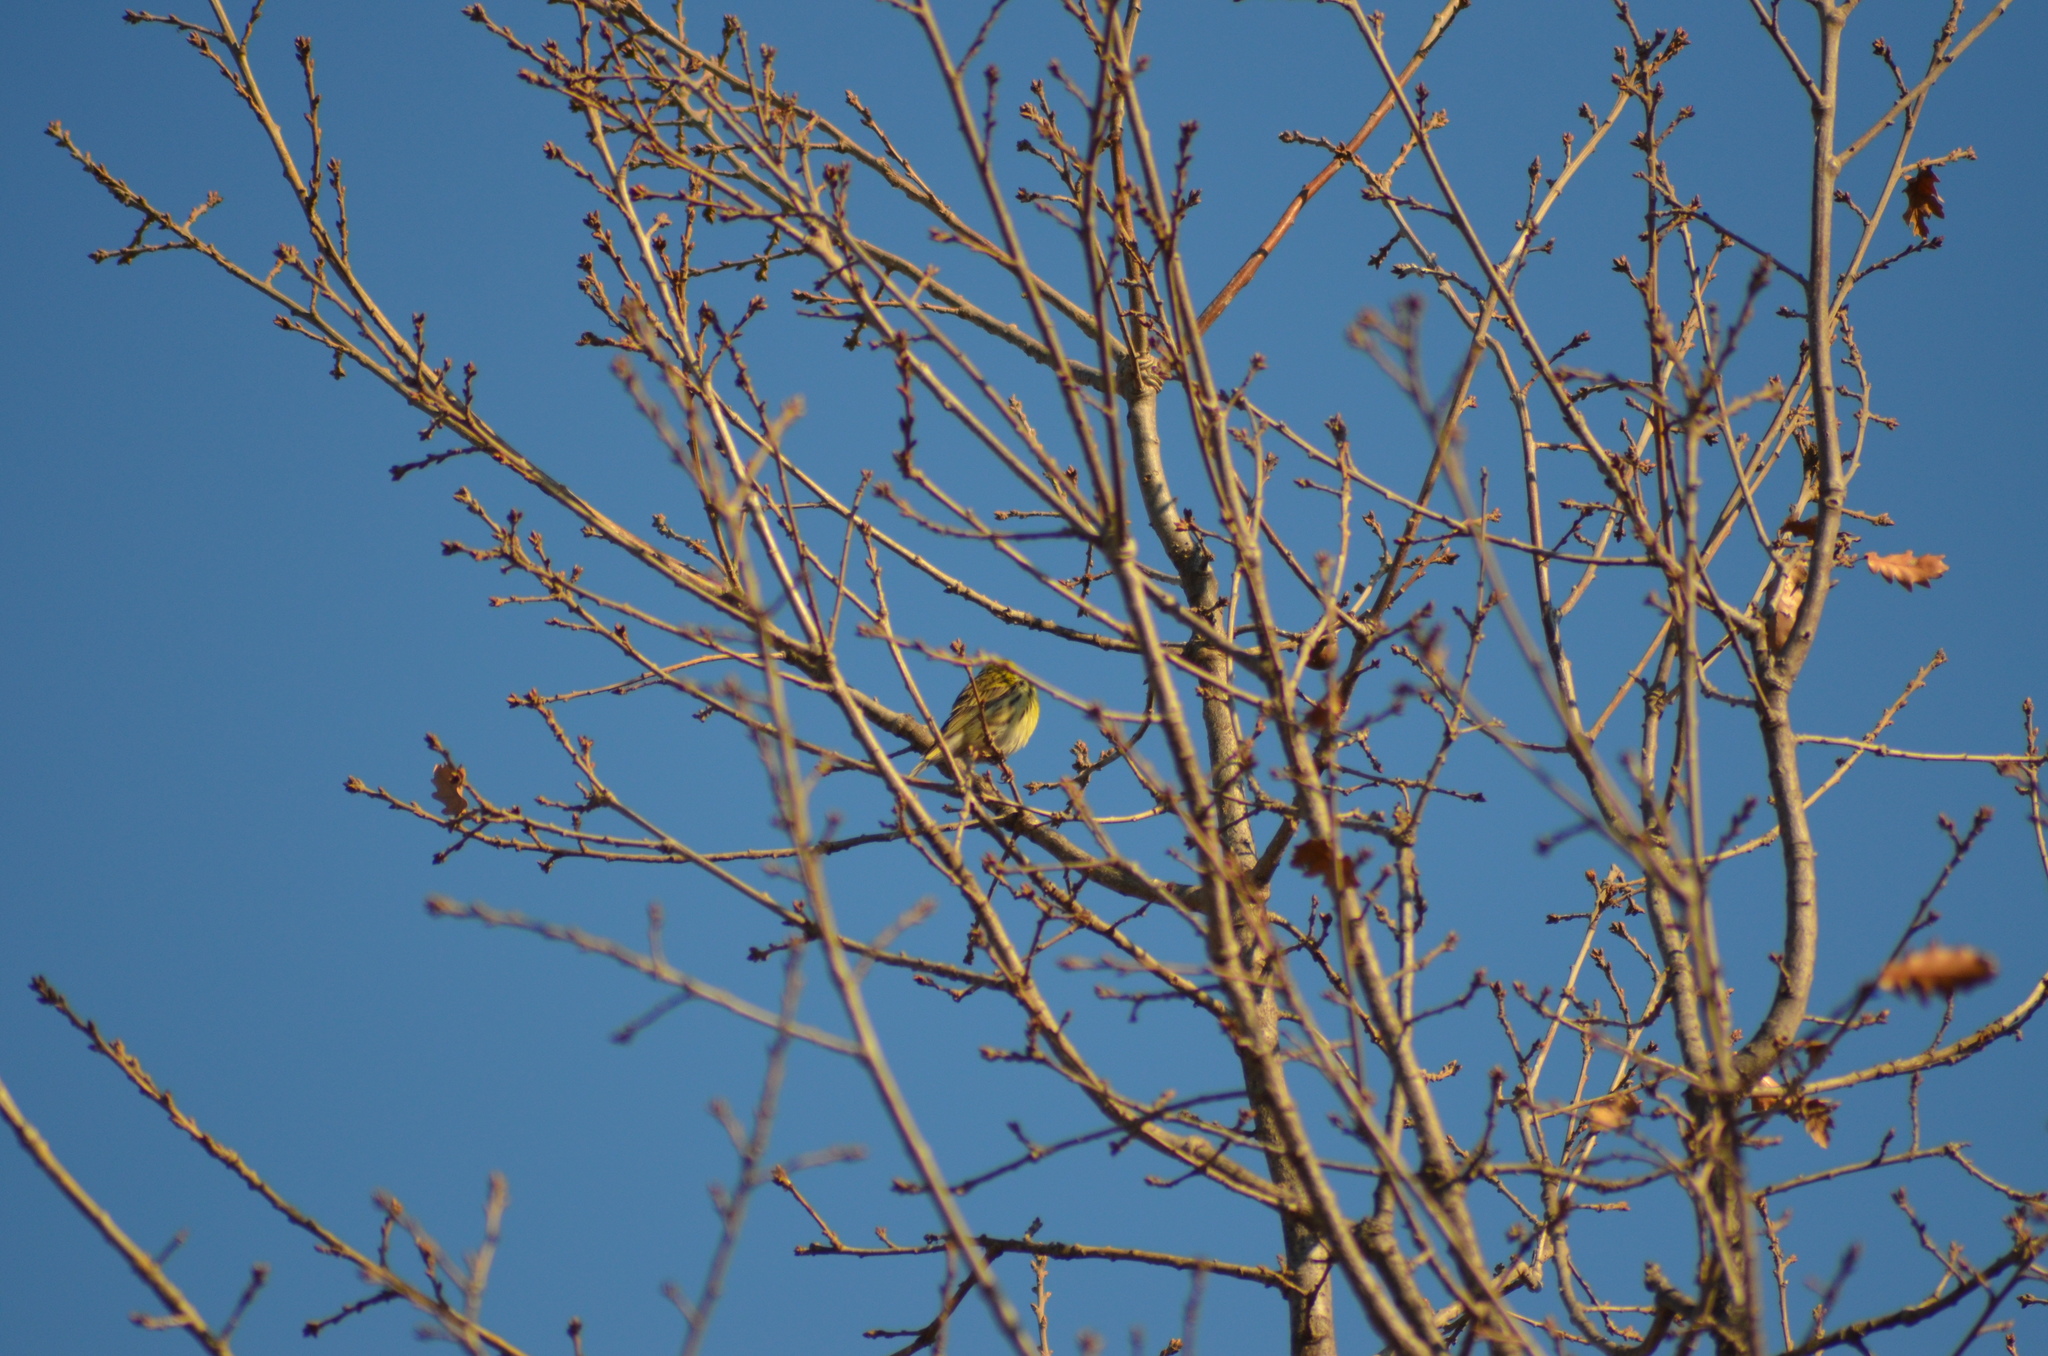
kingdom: Animalia
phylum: Chordata
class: Aves
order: Passeriformes
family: Fringillidae
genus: Serinus
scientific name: Serinus serinus
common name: European serin
